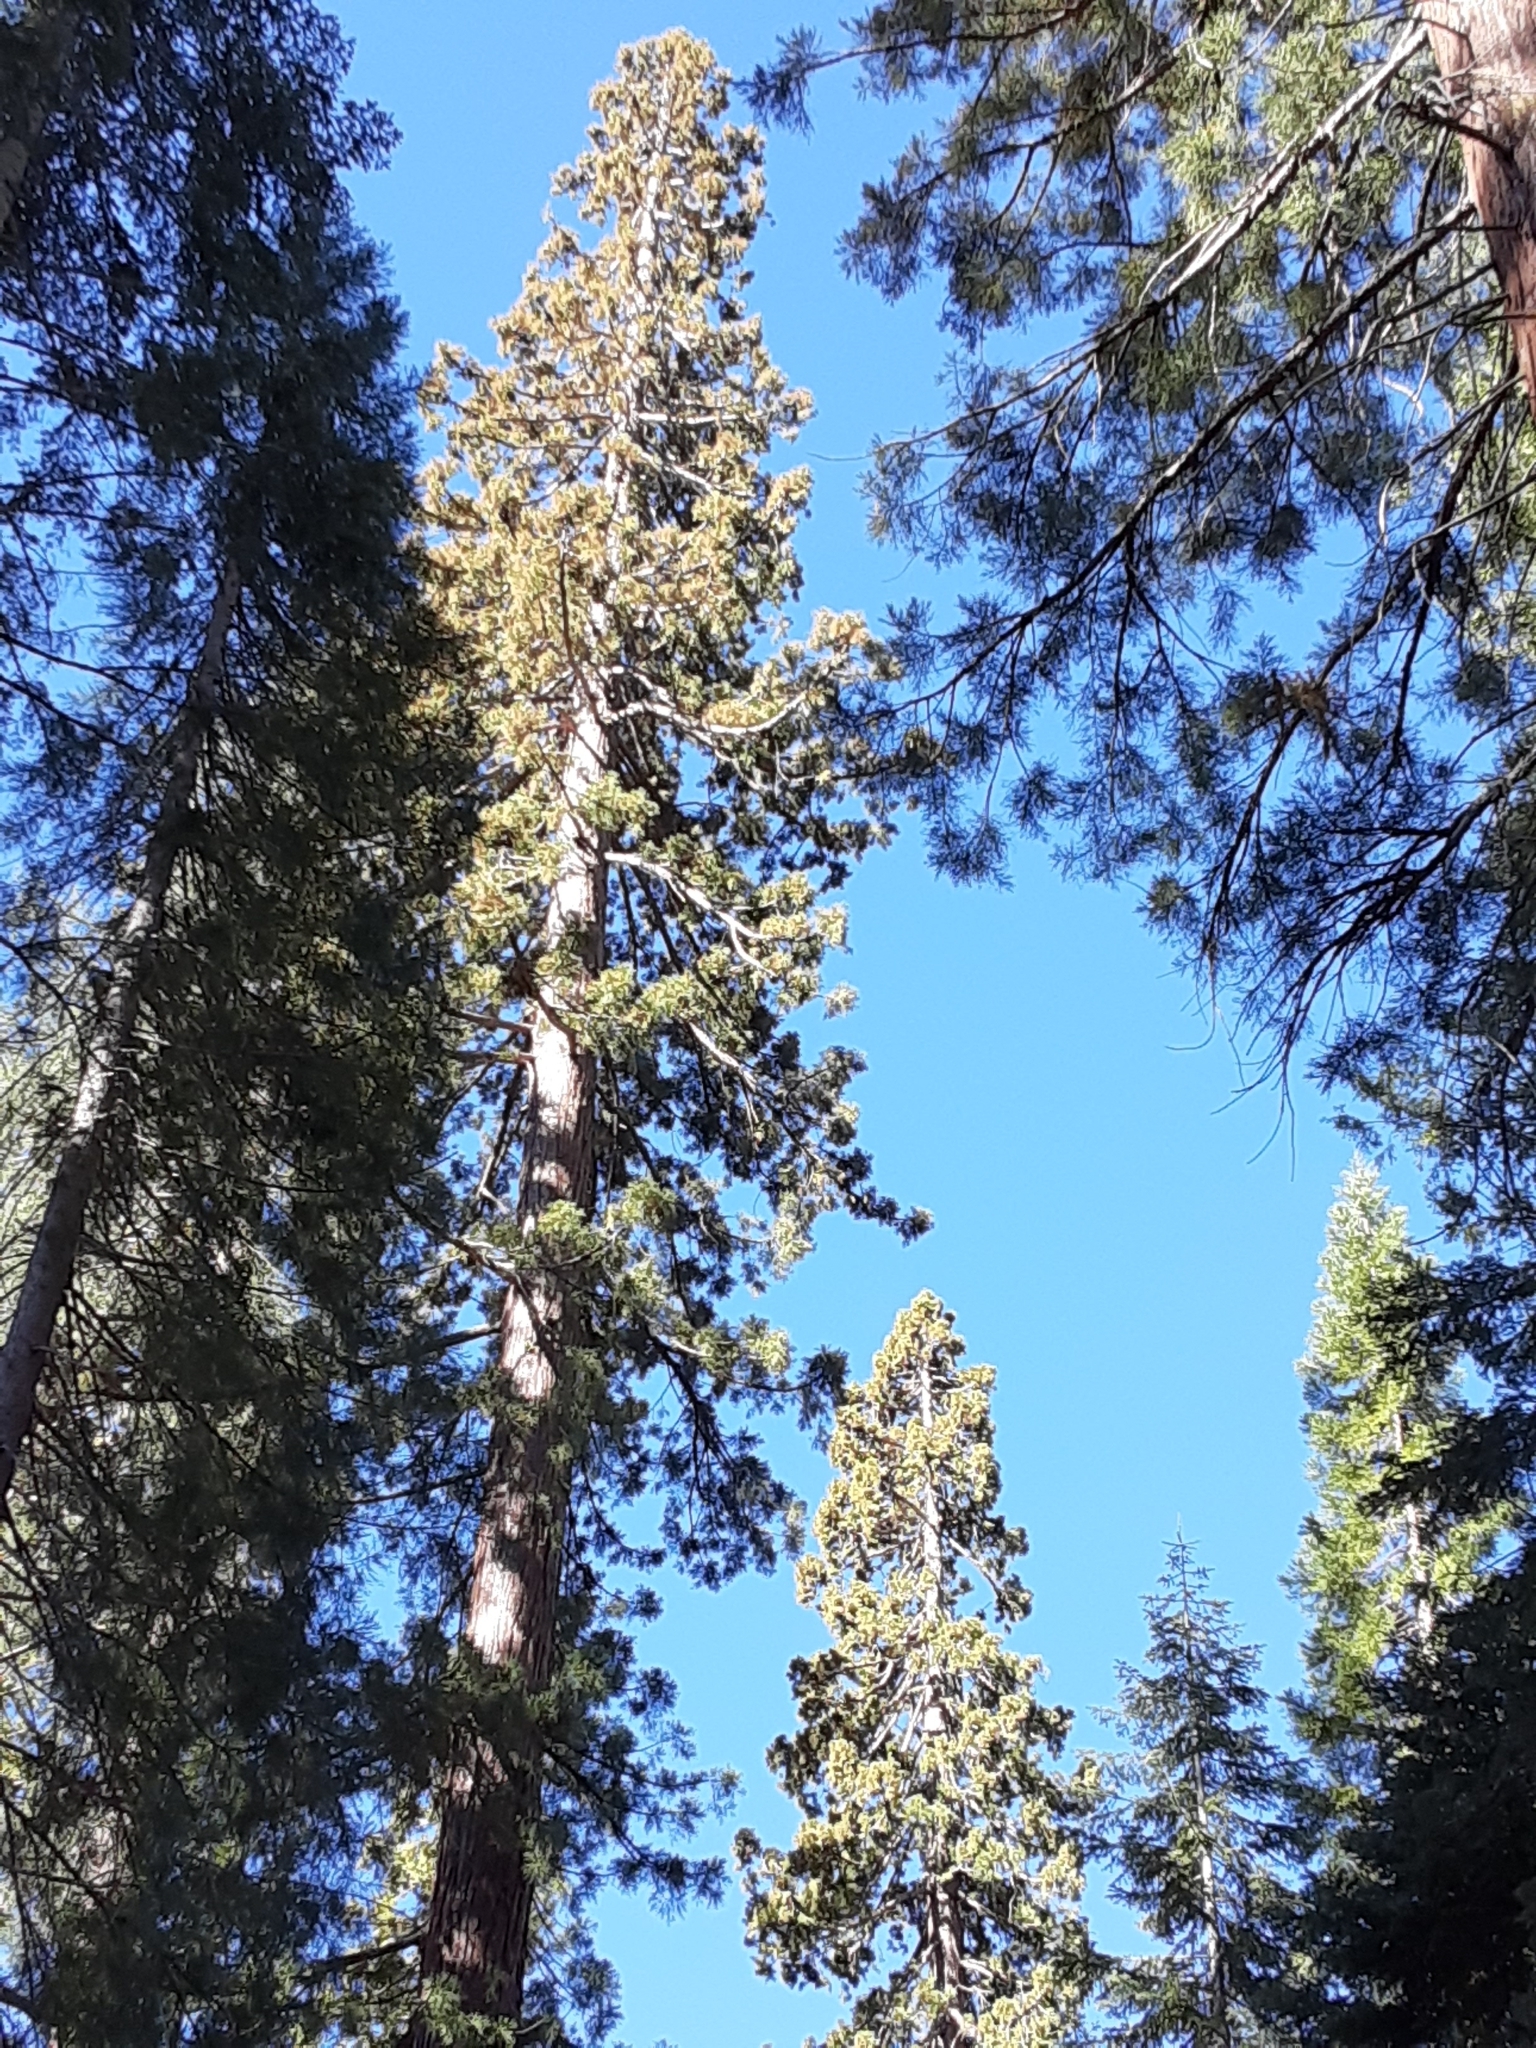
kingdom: Plantae
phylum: Tracheophyta
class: Pinopsida
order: Pinales
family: Cupressaceae
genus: Sequoiadendron
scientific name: Sequoiadendron giganteum
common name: Wellingtonia
